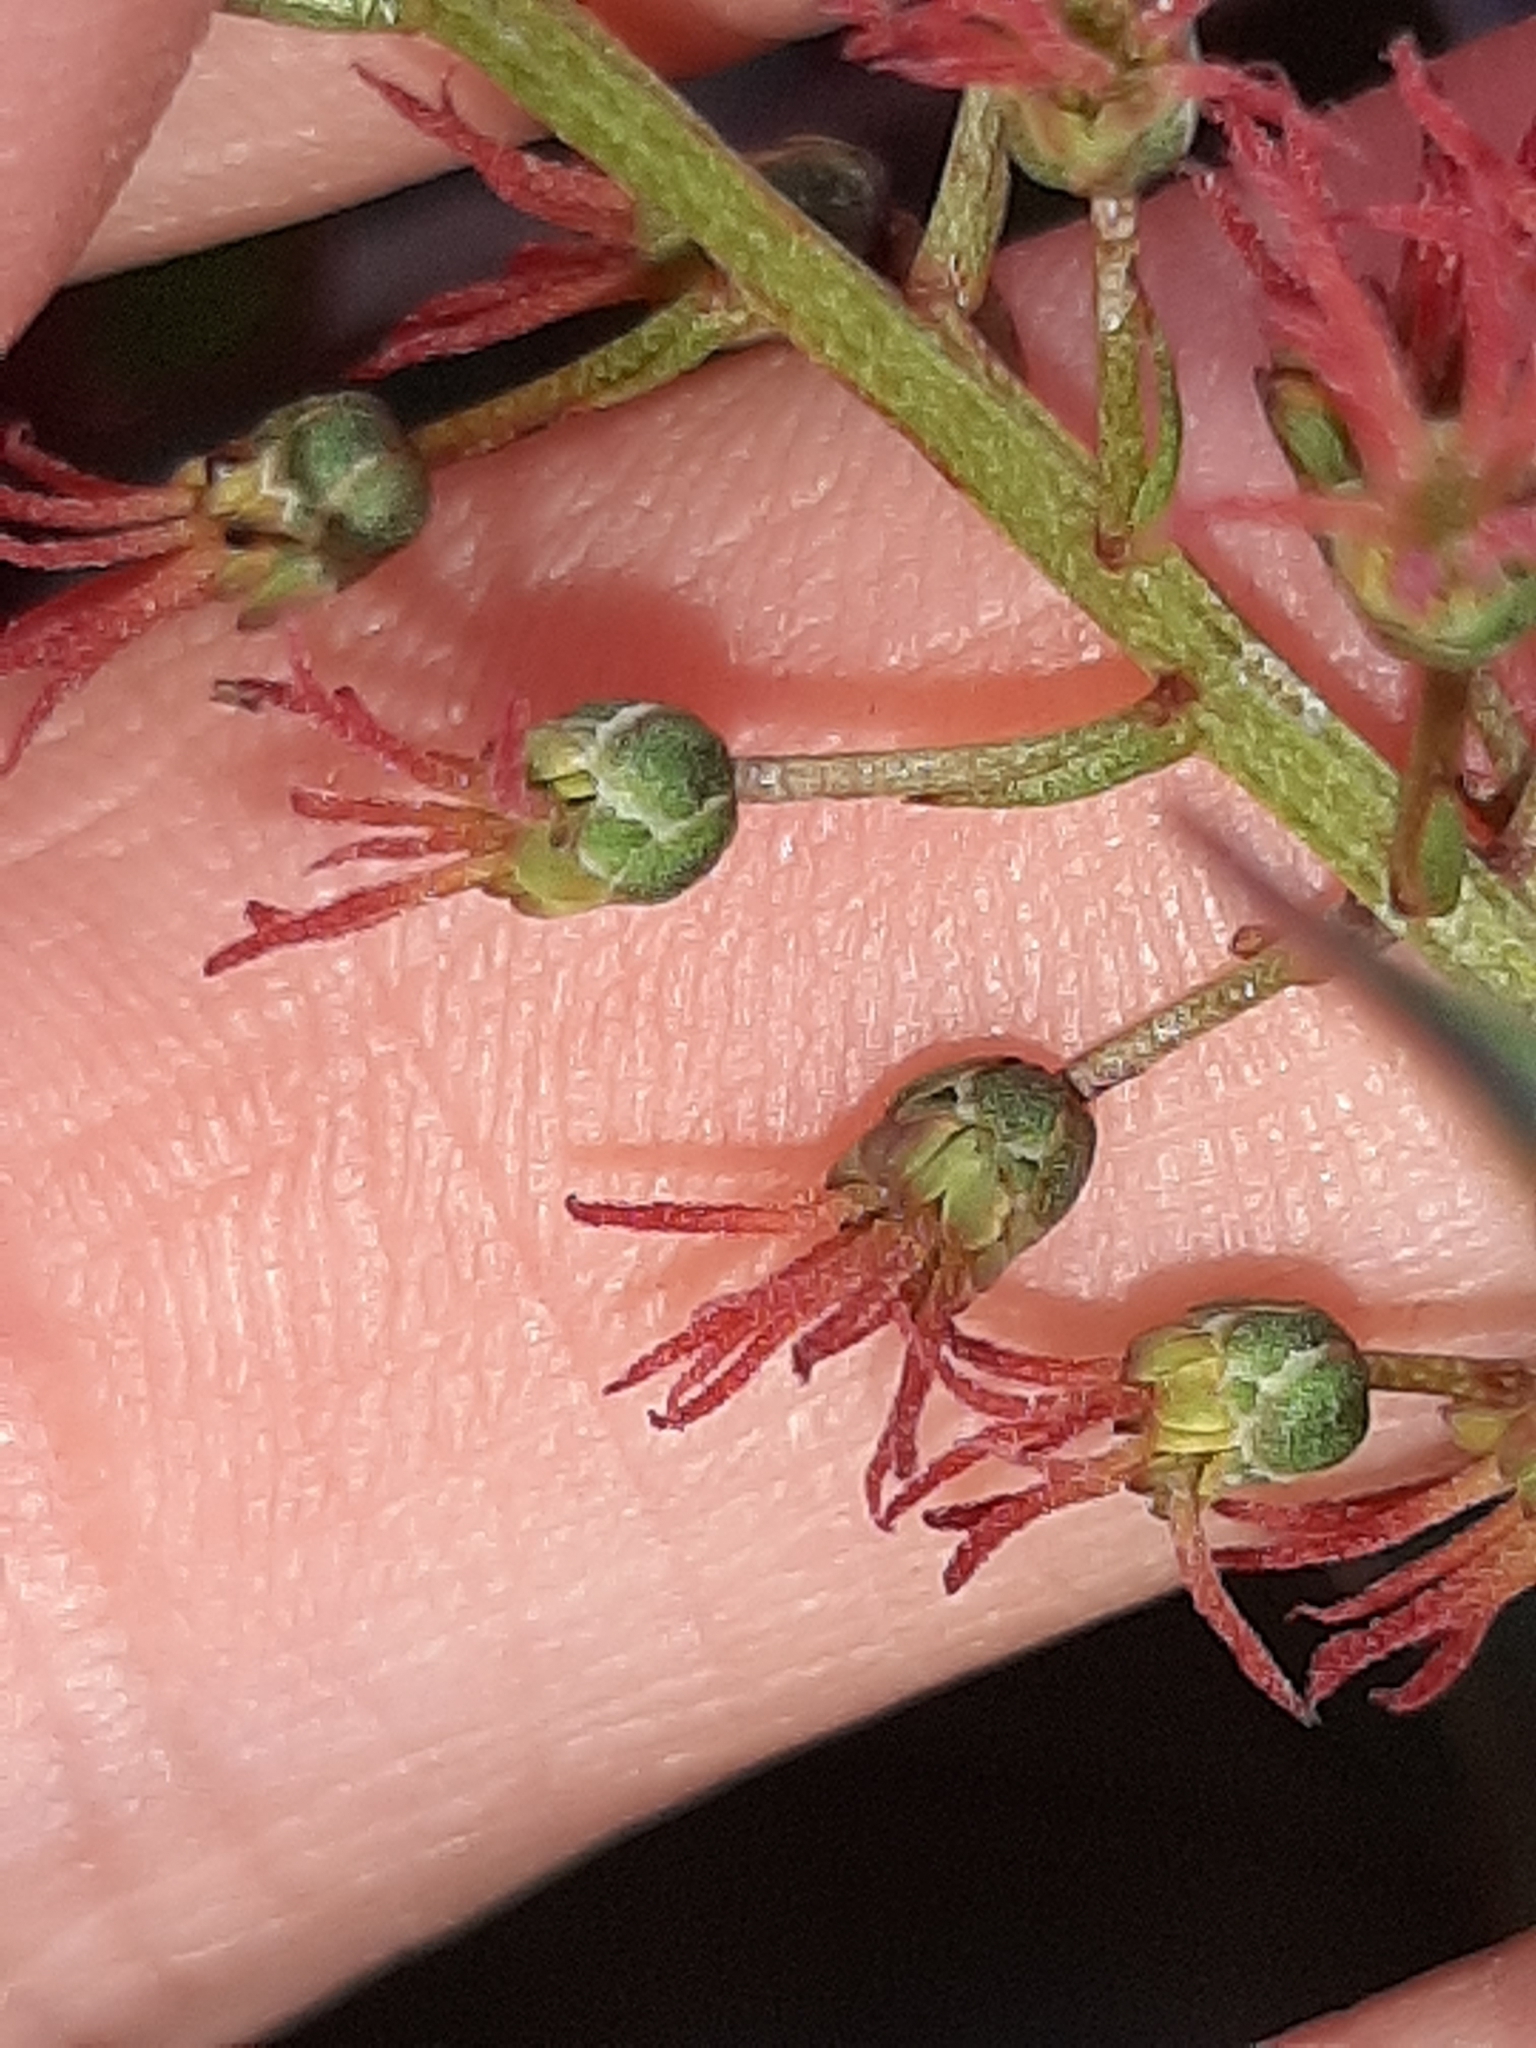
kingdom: Plantae
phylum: Tracheophyta
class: Magnoliopsida
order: Cucurbitales
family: Coriariaceae
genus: Coriaria
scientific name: Coriaria sarmentosa
